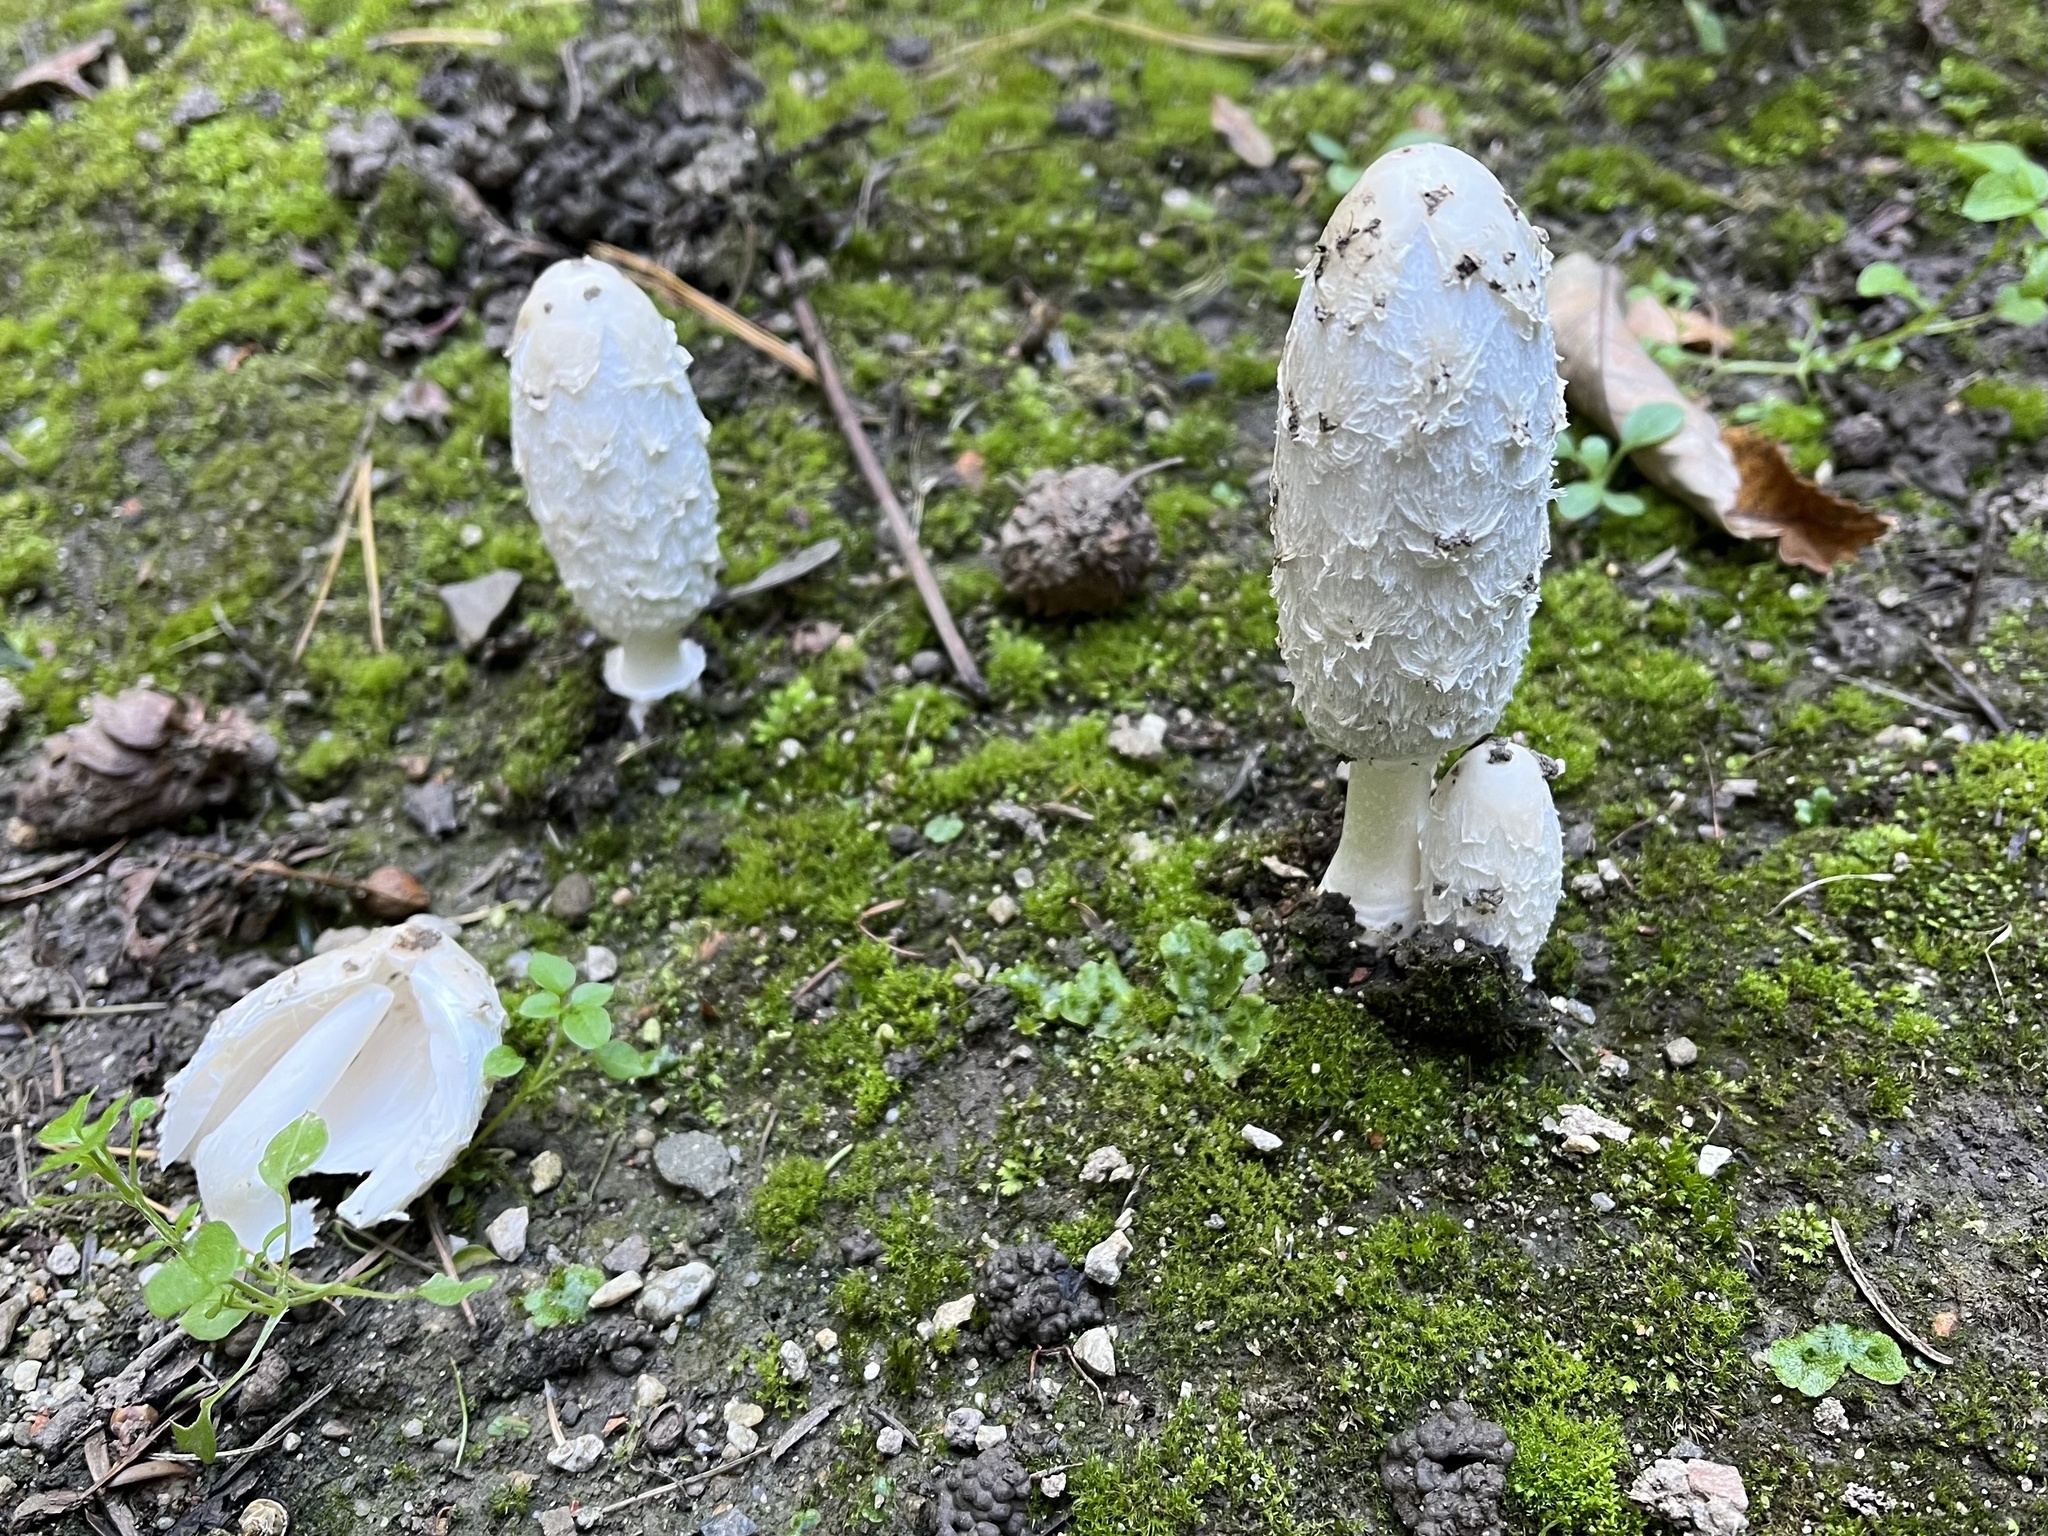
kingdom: Fungi
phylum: Basidiomycota
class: Agaricomycetes
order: Agaricales
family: Agaricaceae
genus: Coprinus
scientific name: Coprinus comatus
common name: Lawyer's wig
